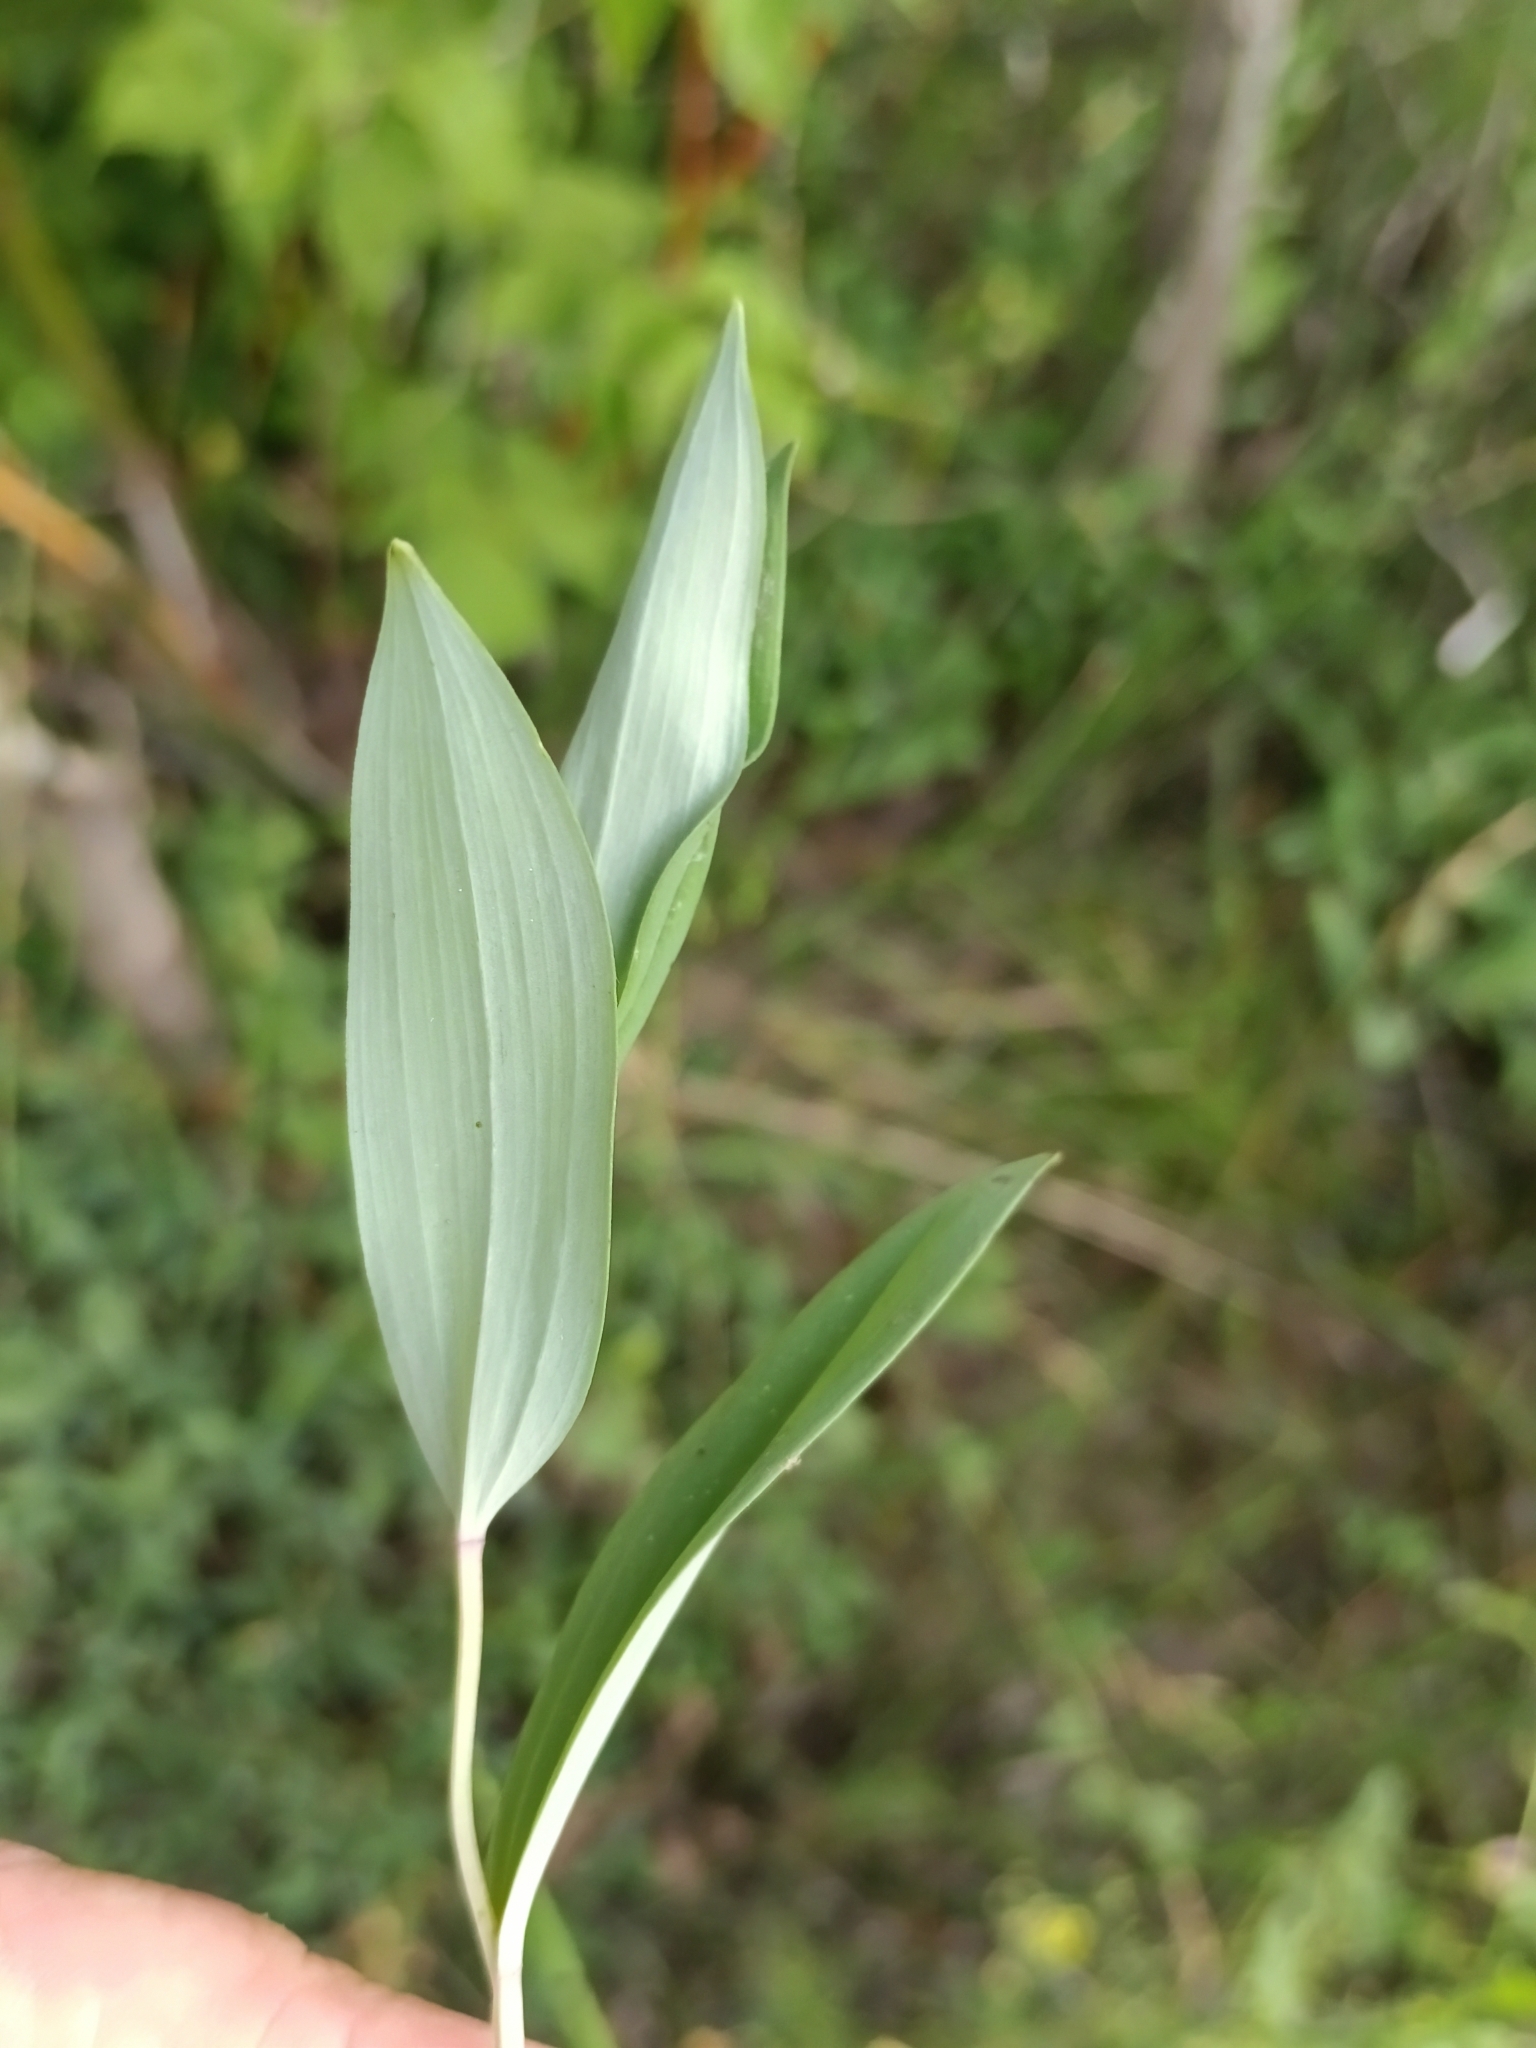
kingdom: Plantae
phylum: Tracheophyta
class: Liliopsida
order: Asparagales
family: Asparagaceae
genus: Polygonatum
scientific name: Polygonatum odoratum
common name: Angular solomon's-seal
